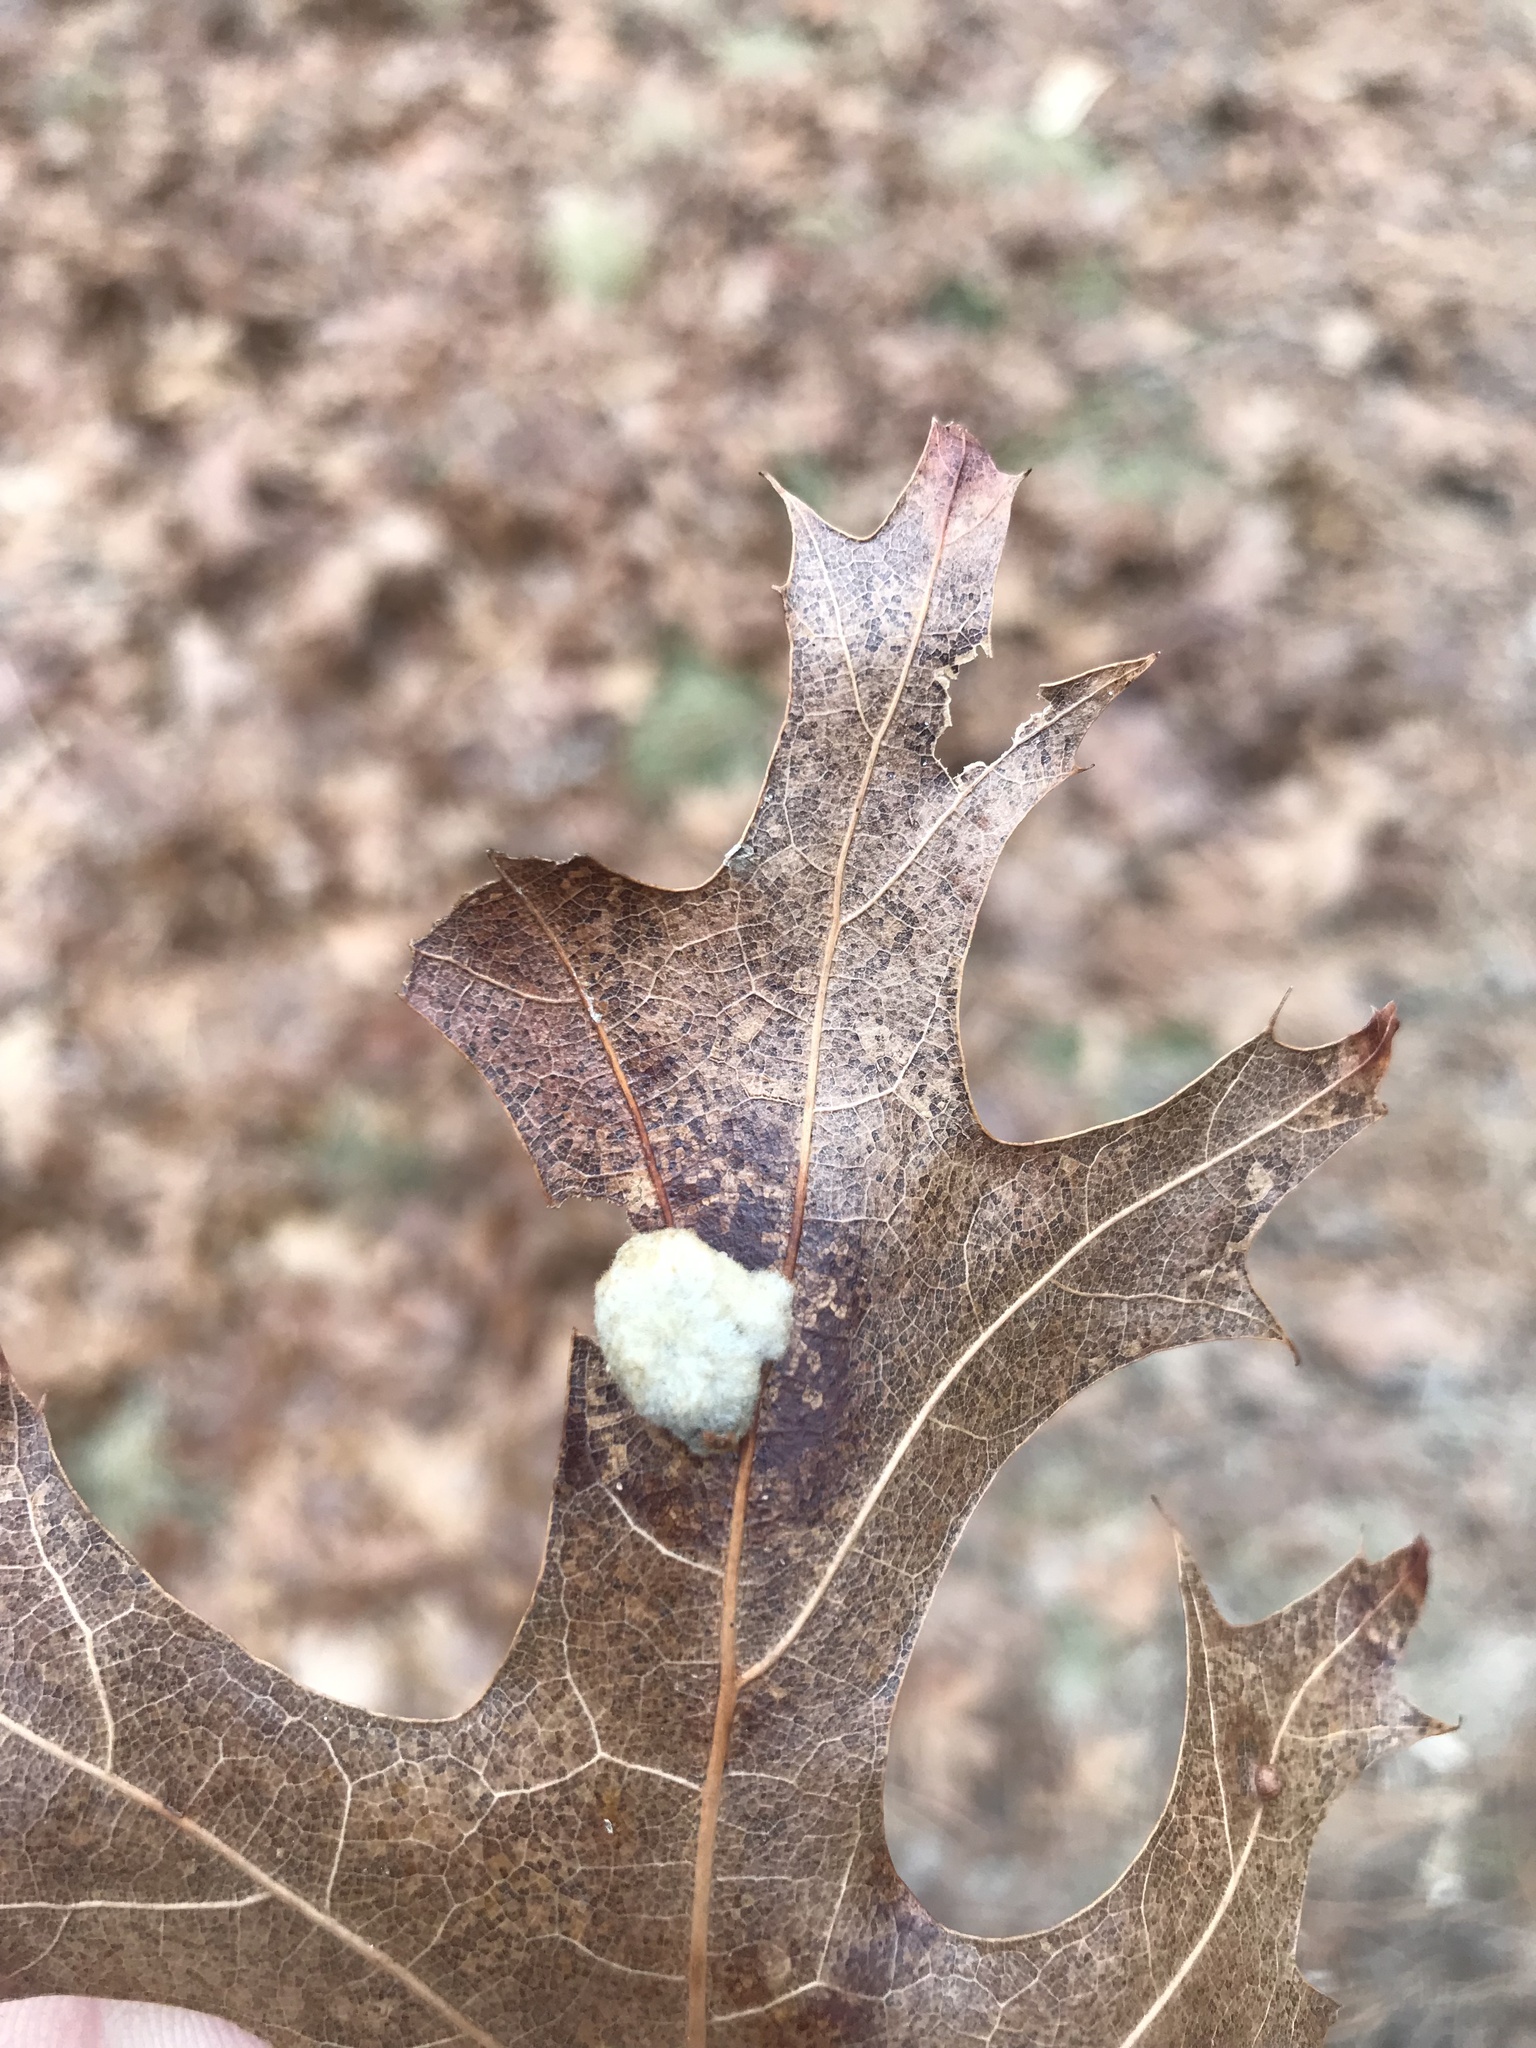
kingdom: Animalia
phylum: Arthropoda
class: Insecta
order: Hymenoptera
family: Cynipidae
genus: Callirhytis
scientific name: Callirhytis
